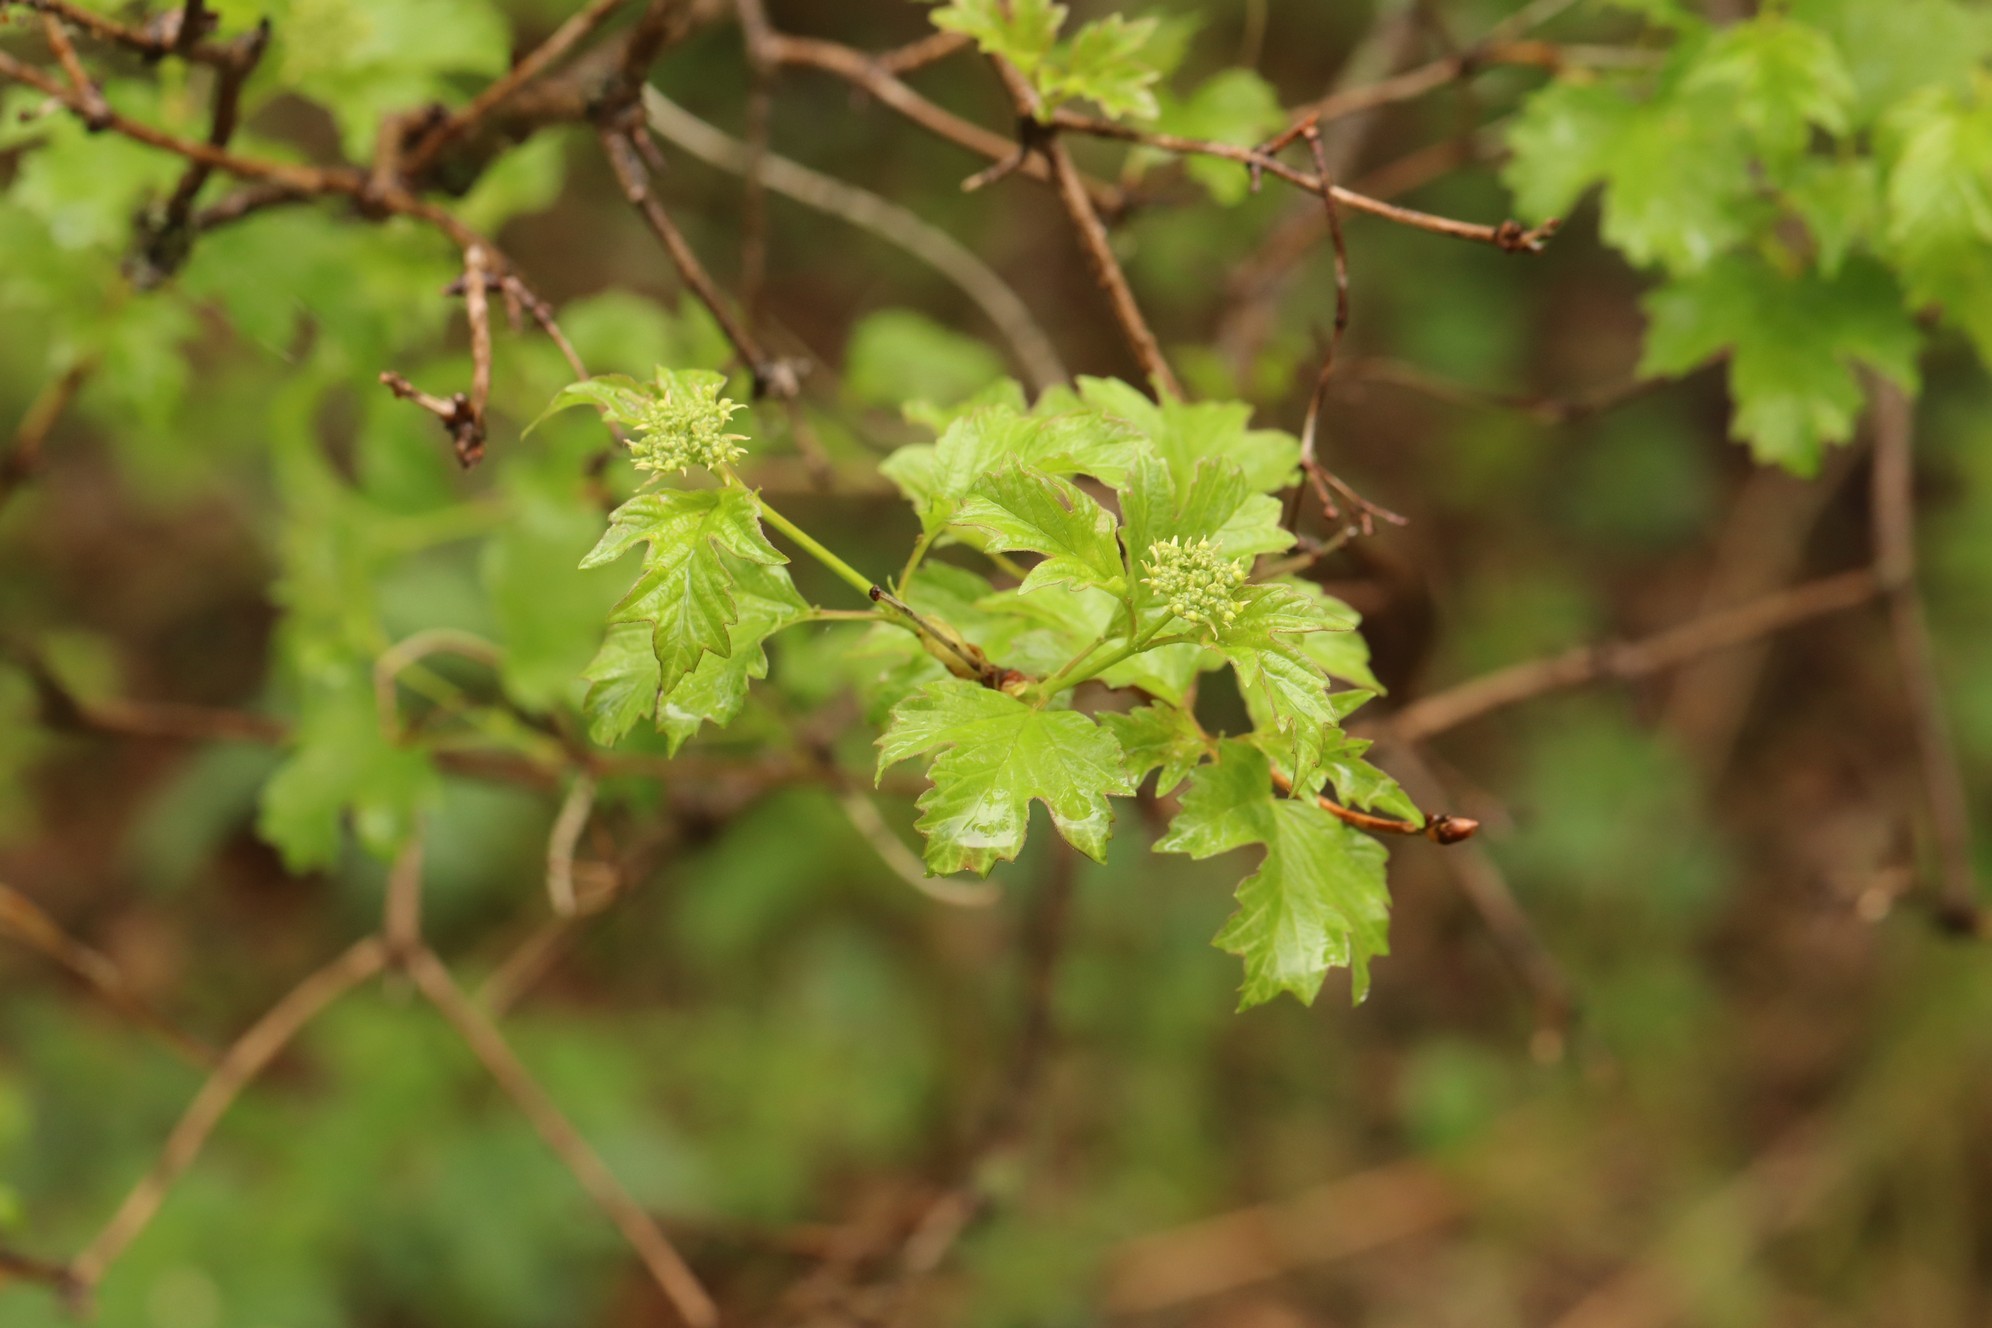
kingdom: Plantae
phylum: Tracheophyta
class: Magnoliopsida
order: Dipsacales
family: Viburnaceae
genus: Viburnum
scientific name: Viburnum opulus
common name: Guelder-rose
